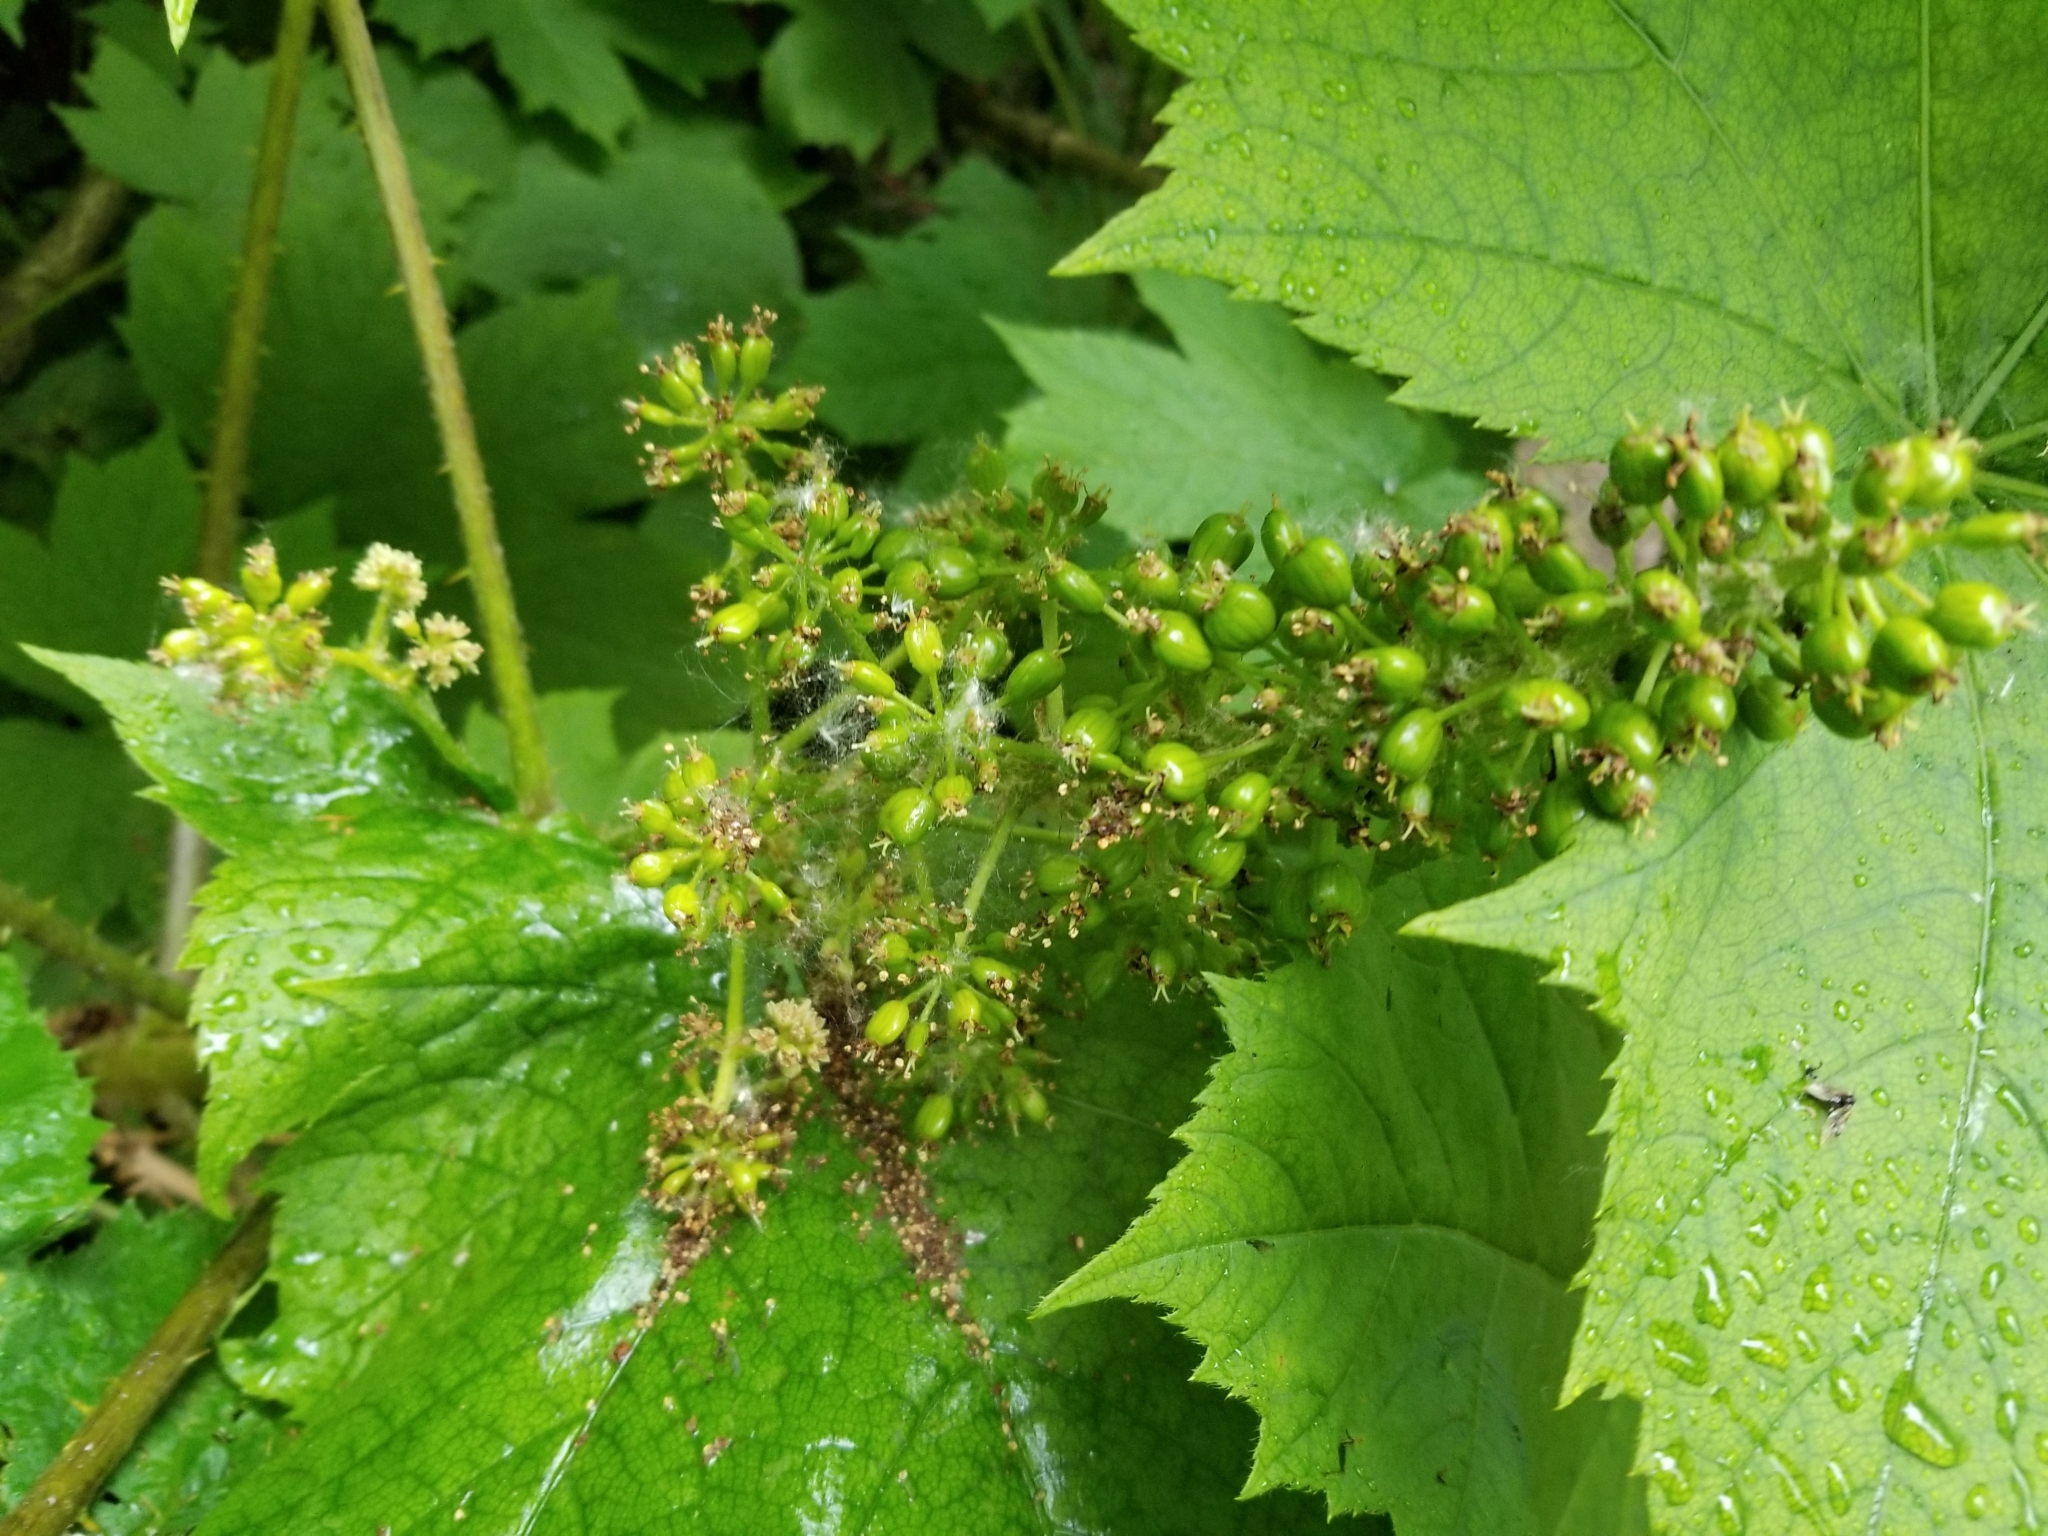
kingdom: Plantae
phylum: Tracheophyta
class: Magnoliopsida
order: Apiales
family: Araliaceae
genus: Oplopanax
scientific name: Oplopanax horridus
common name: Devil's walking-stick
